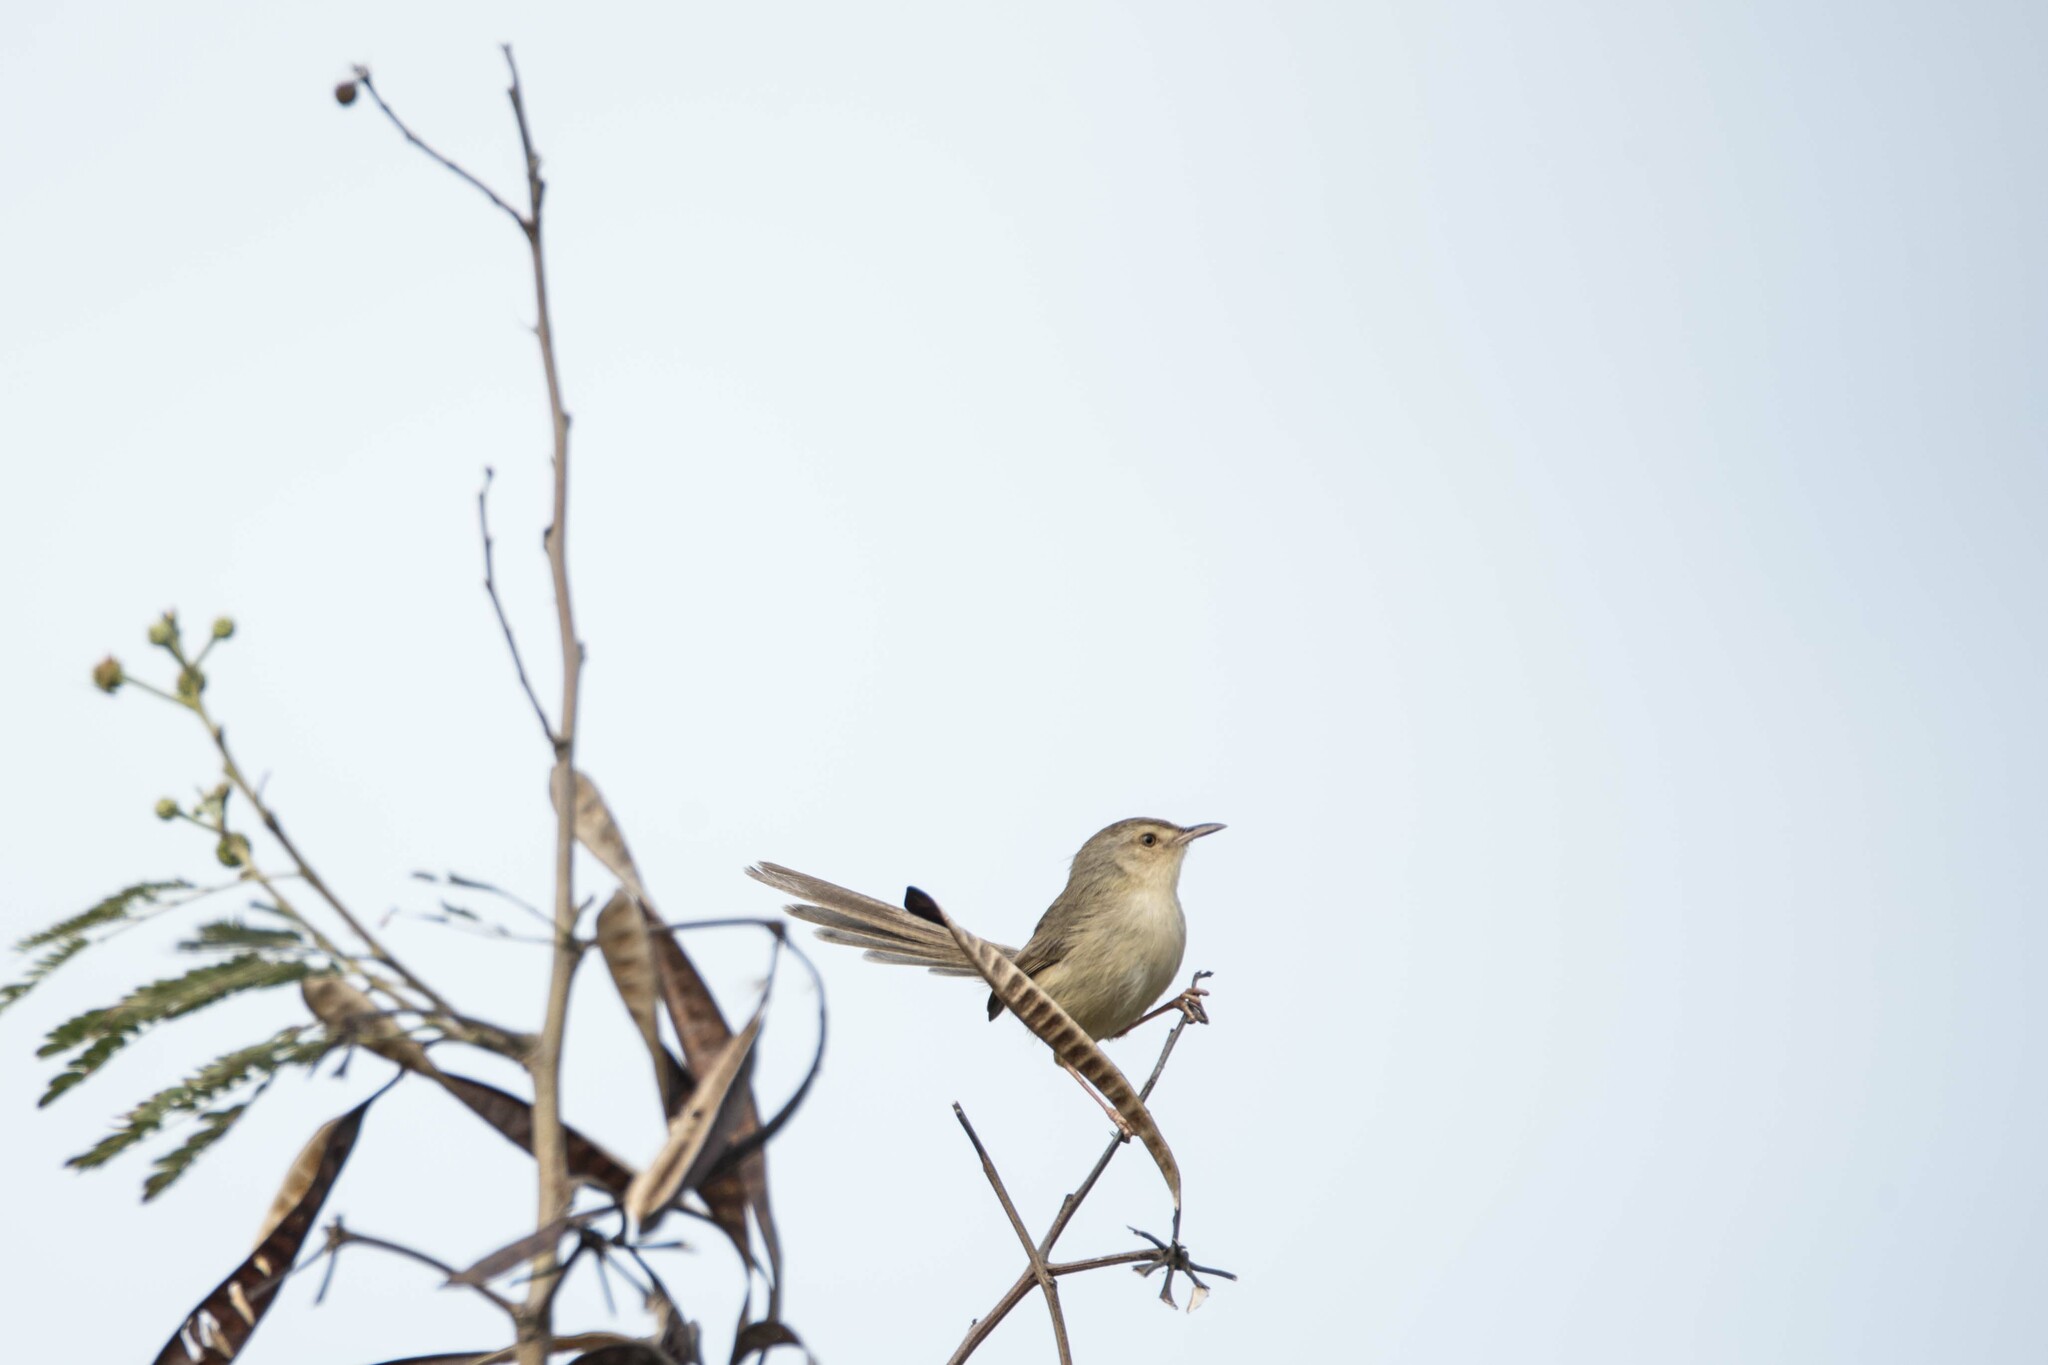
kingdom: Animalia
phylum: Chordata
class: Aves
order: Passeriformes
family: Cisticolidae
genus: Prinia
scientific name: Prinia inornata
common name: Plain prinia
